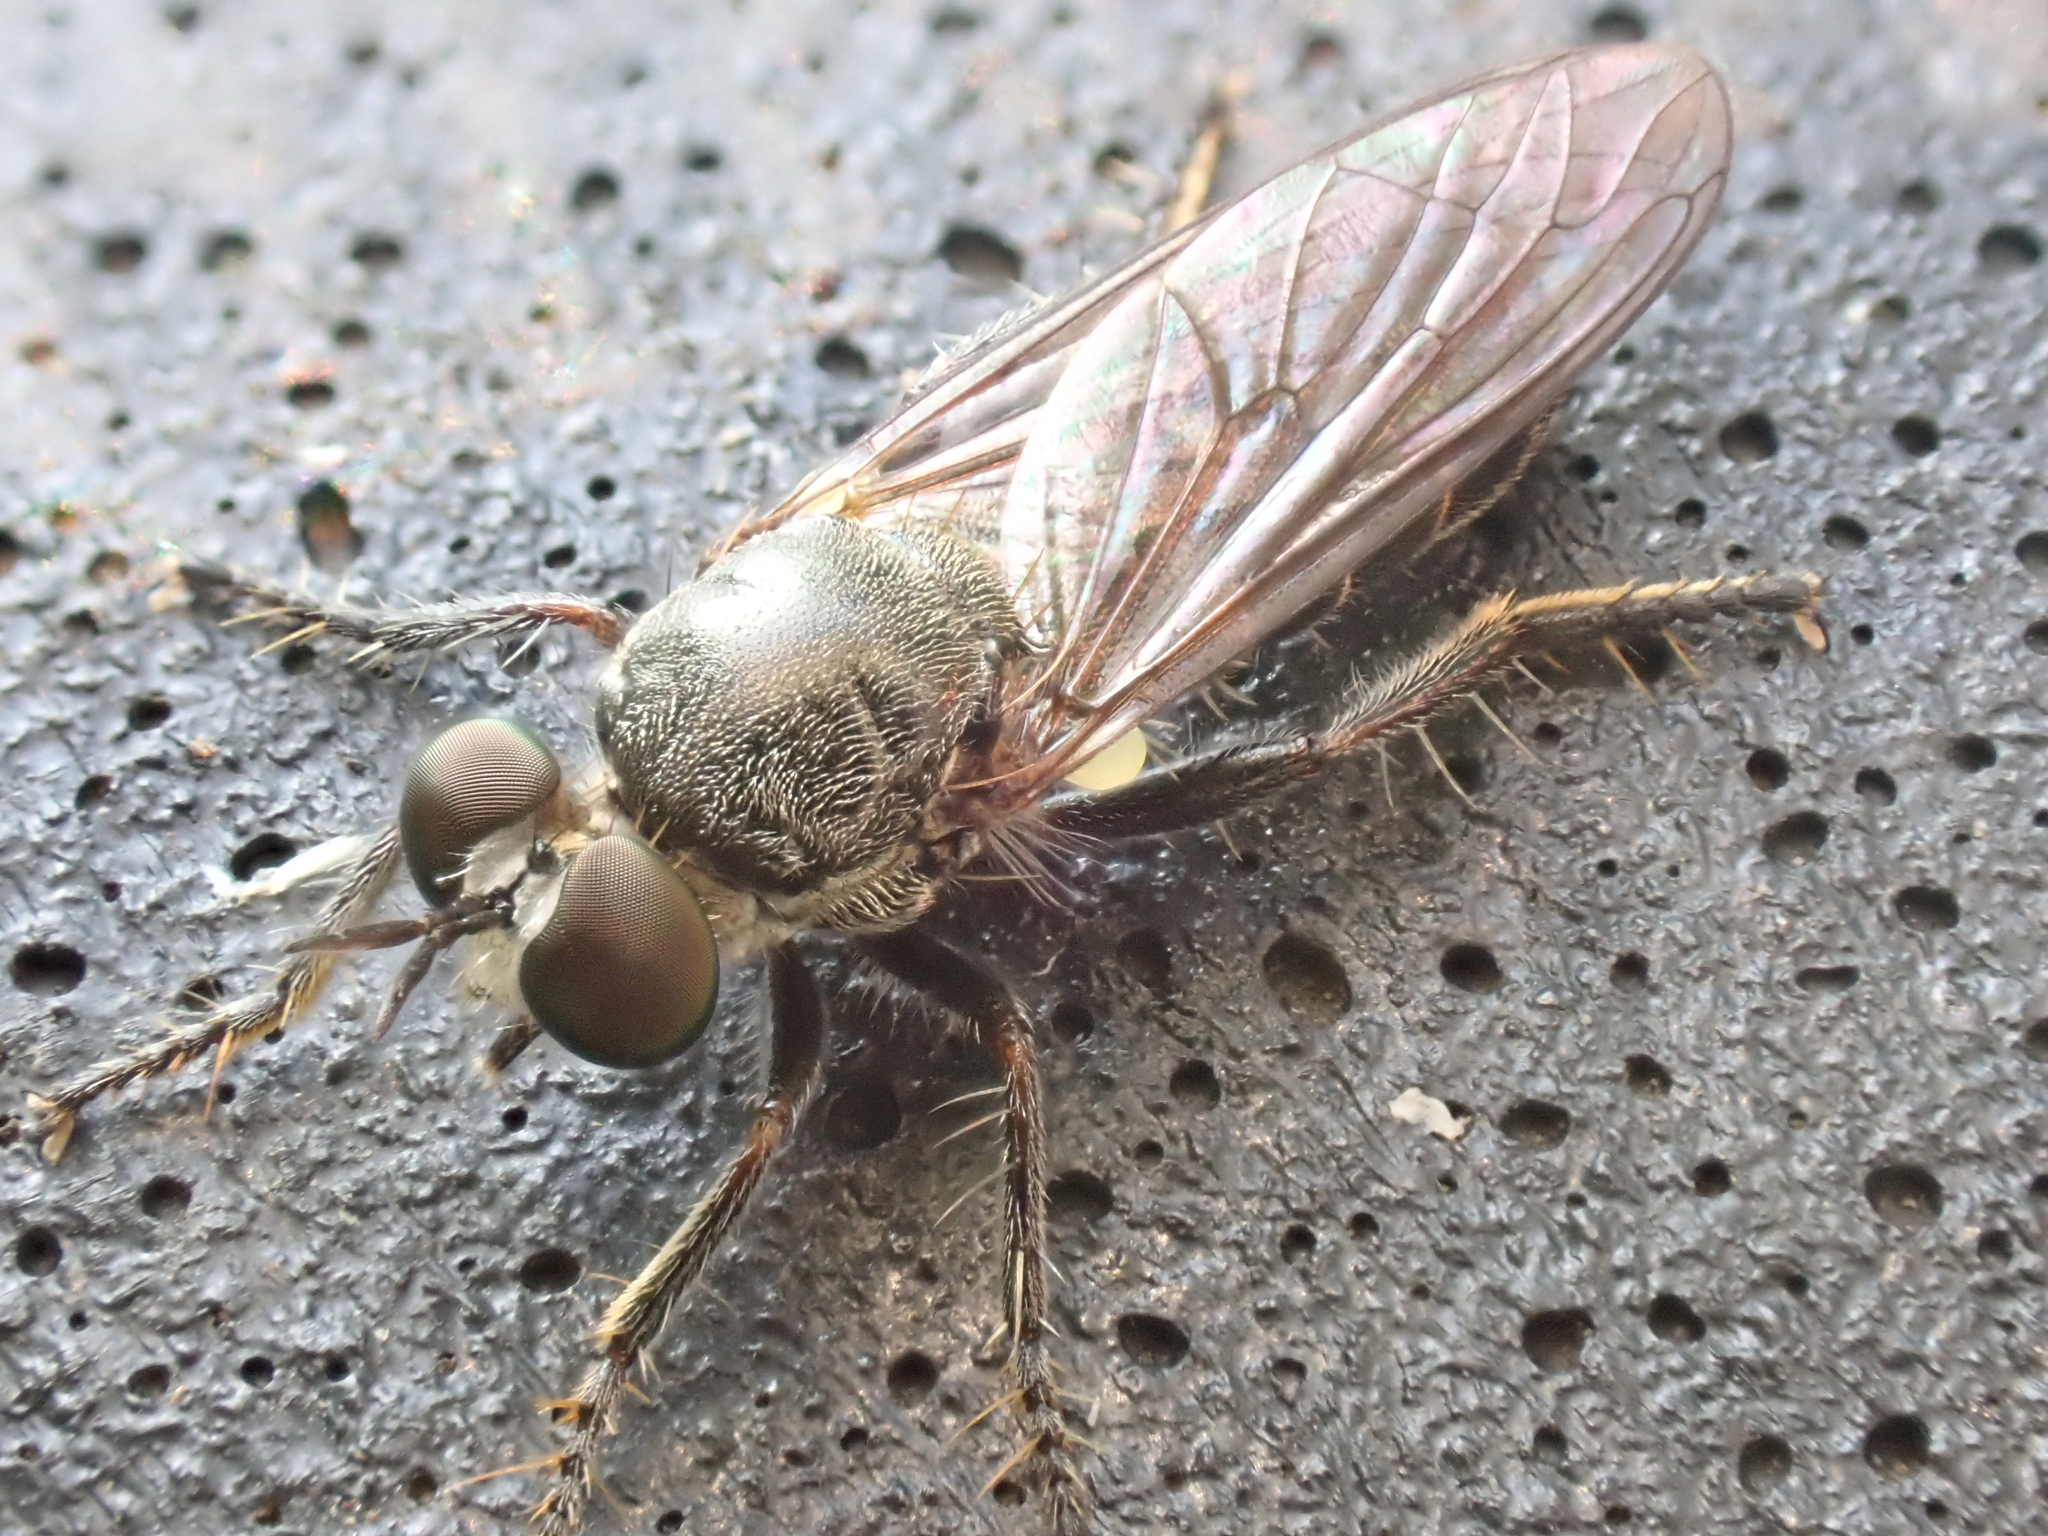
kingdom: Animalia
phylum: Arthropoda
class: Insecta
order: Diptera
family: Asilidae
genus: Atomosia
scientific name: Atomosia puella
